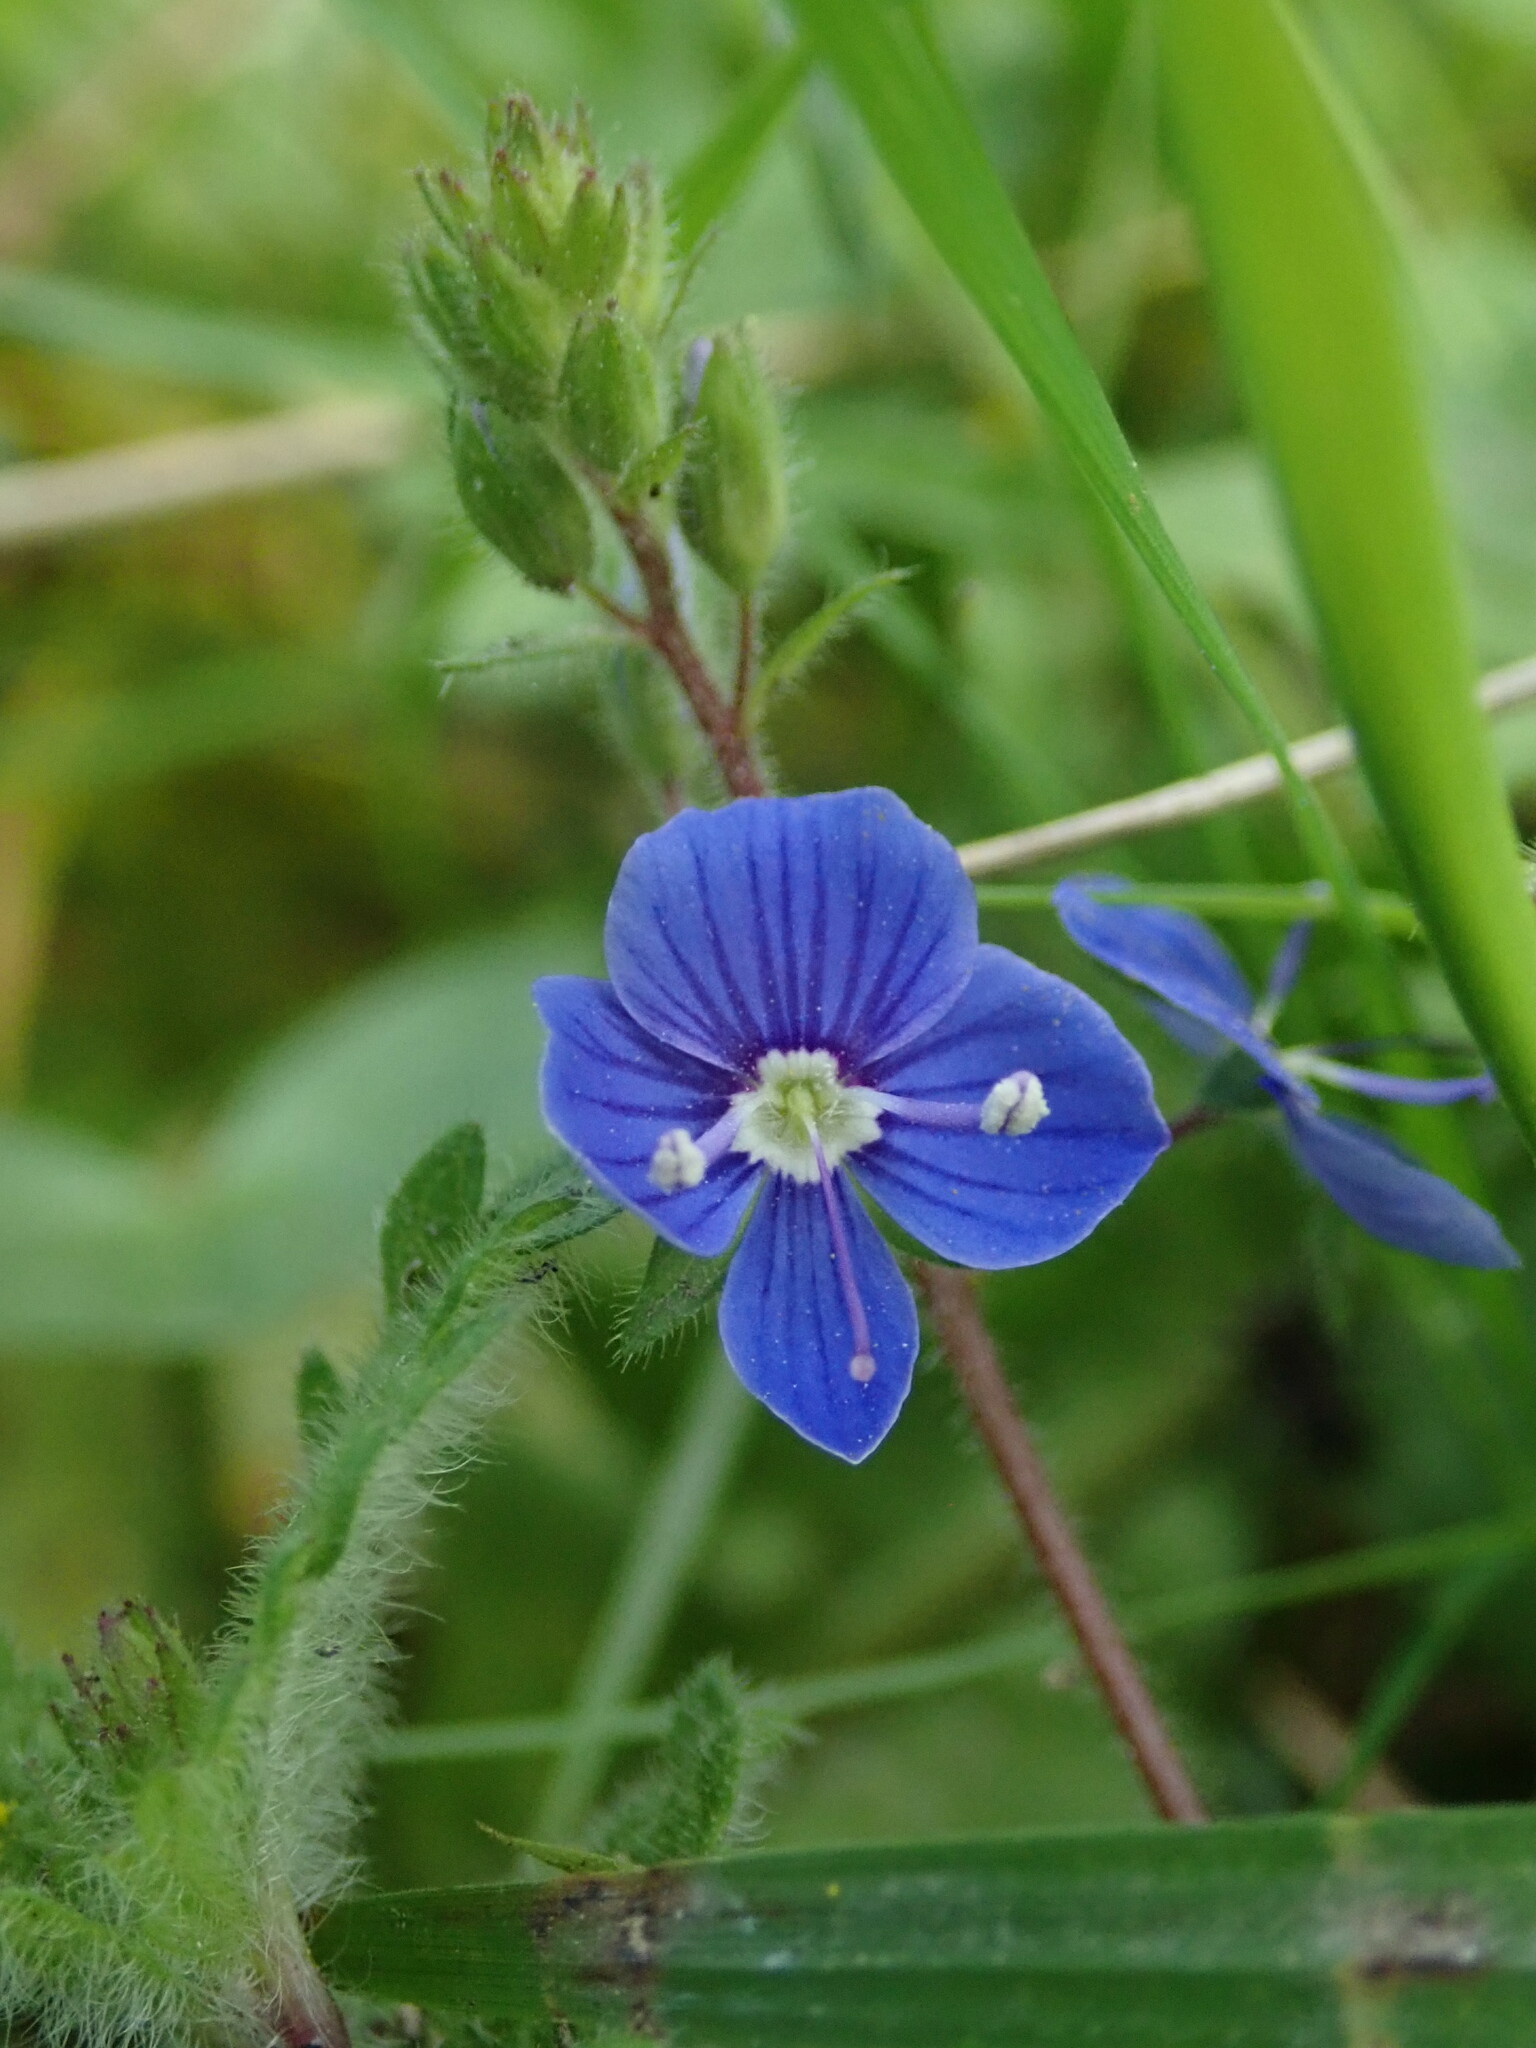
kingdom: Plantae
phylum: Tracheophyta
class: Magnoliopsida
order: Lamiales
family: Plantaginaceae
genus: Veronica
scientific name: Veronica chamaedrys
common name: Germander speedwell
